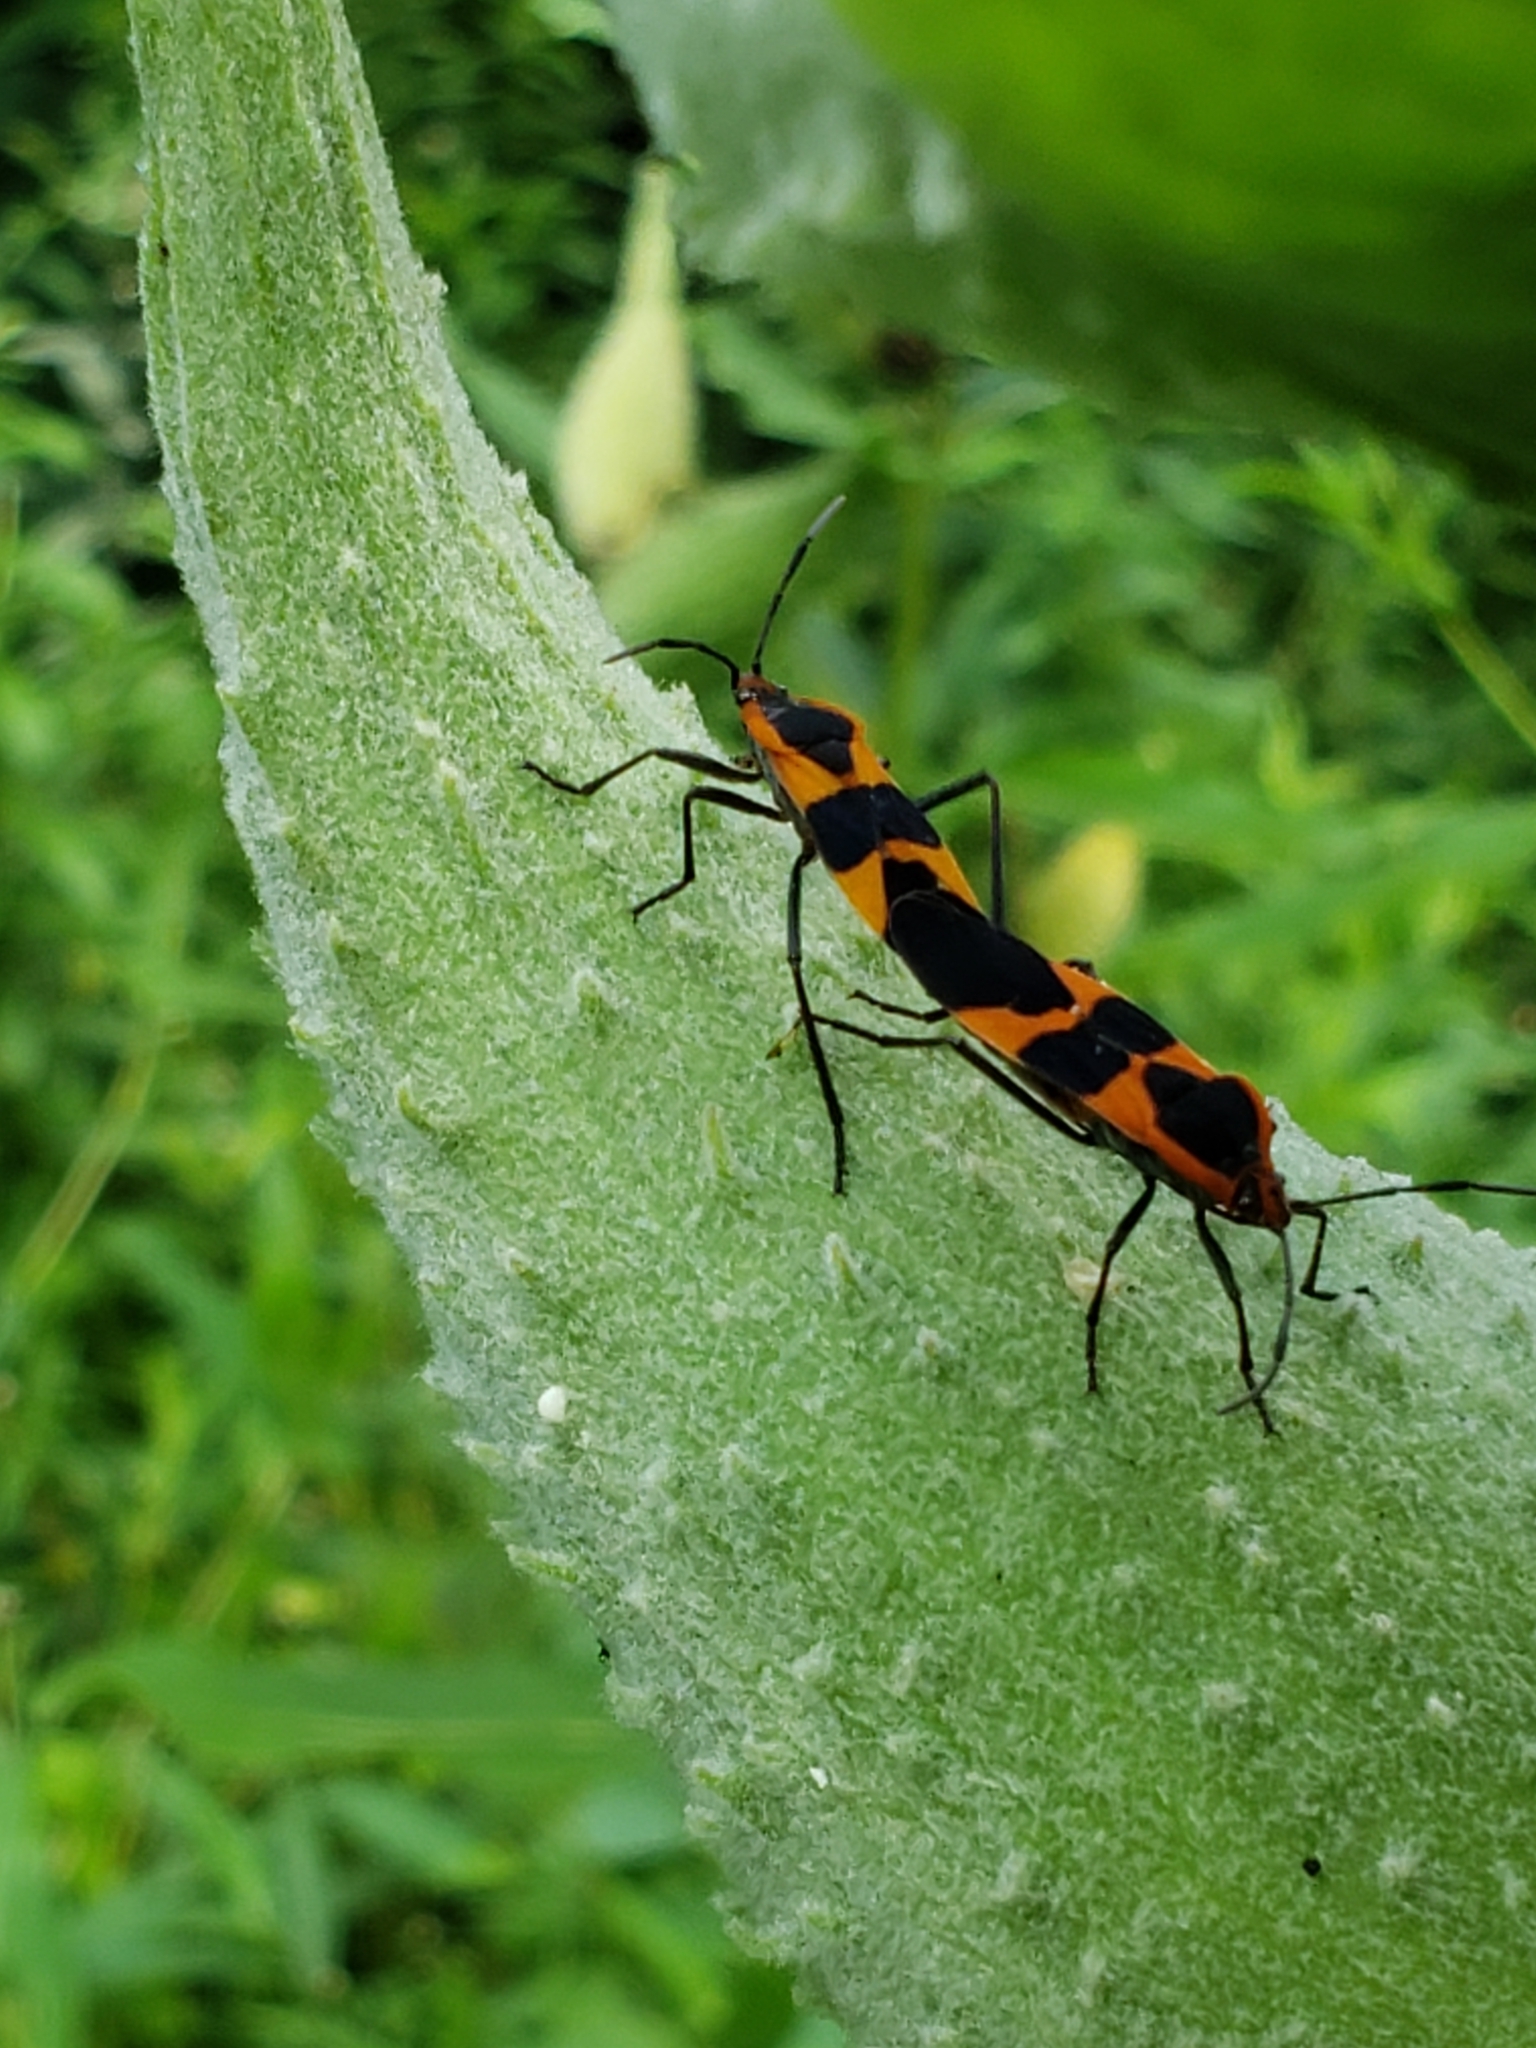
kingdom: Animalia
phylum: Arthropoda
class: Insecta
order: Hemiptera
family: Lygaeidae
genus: Oncopeltus
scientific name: Oncopeltus fasciatus
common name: Large milkweed bug
